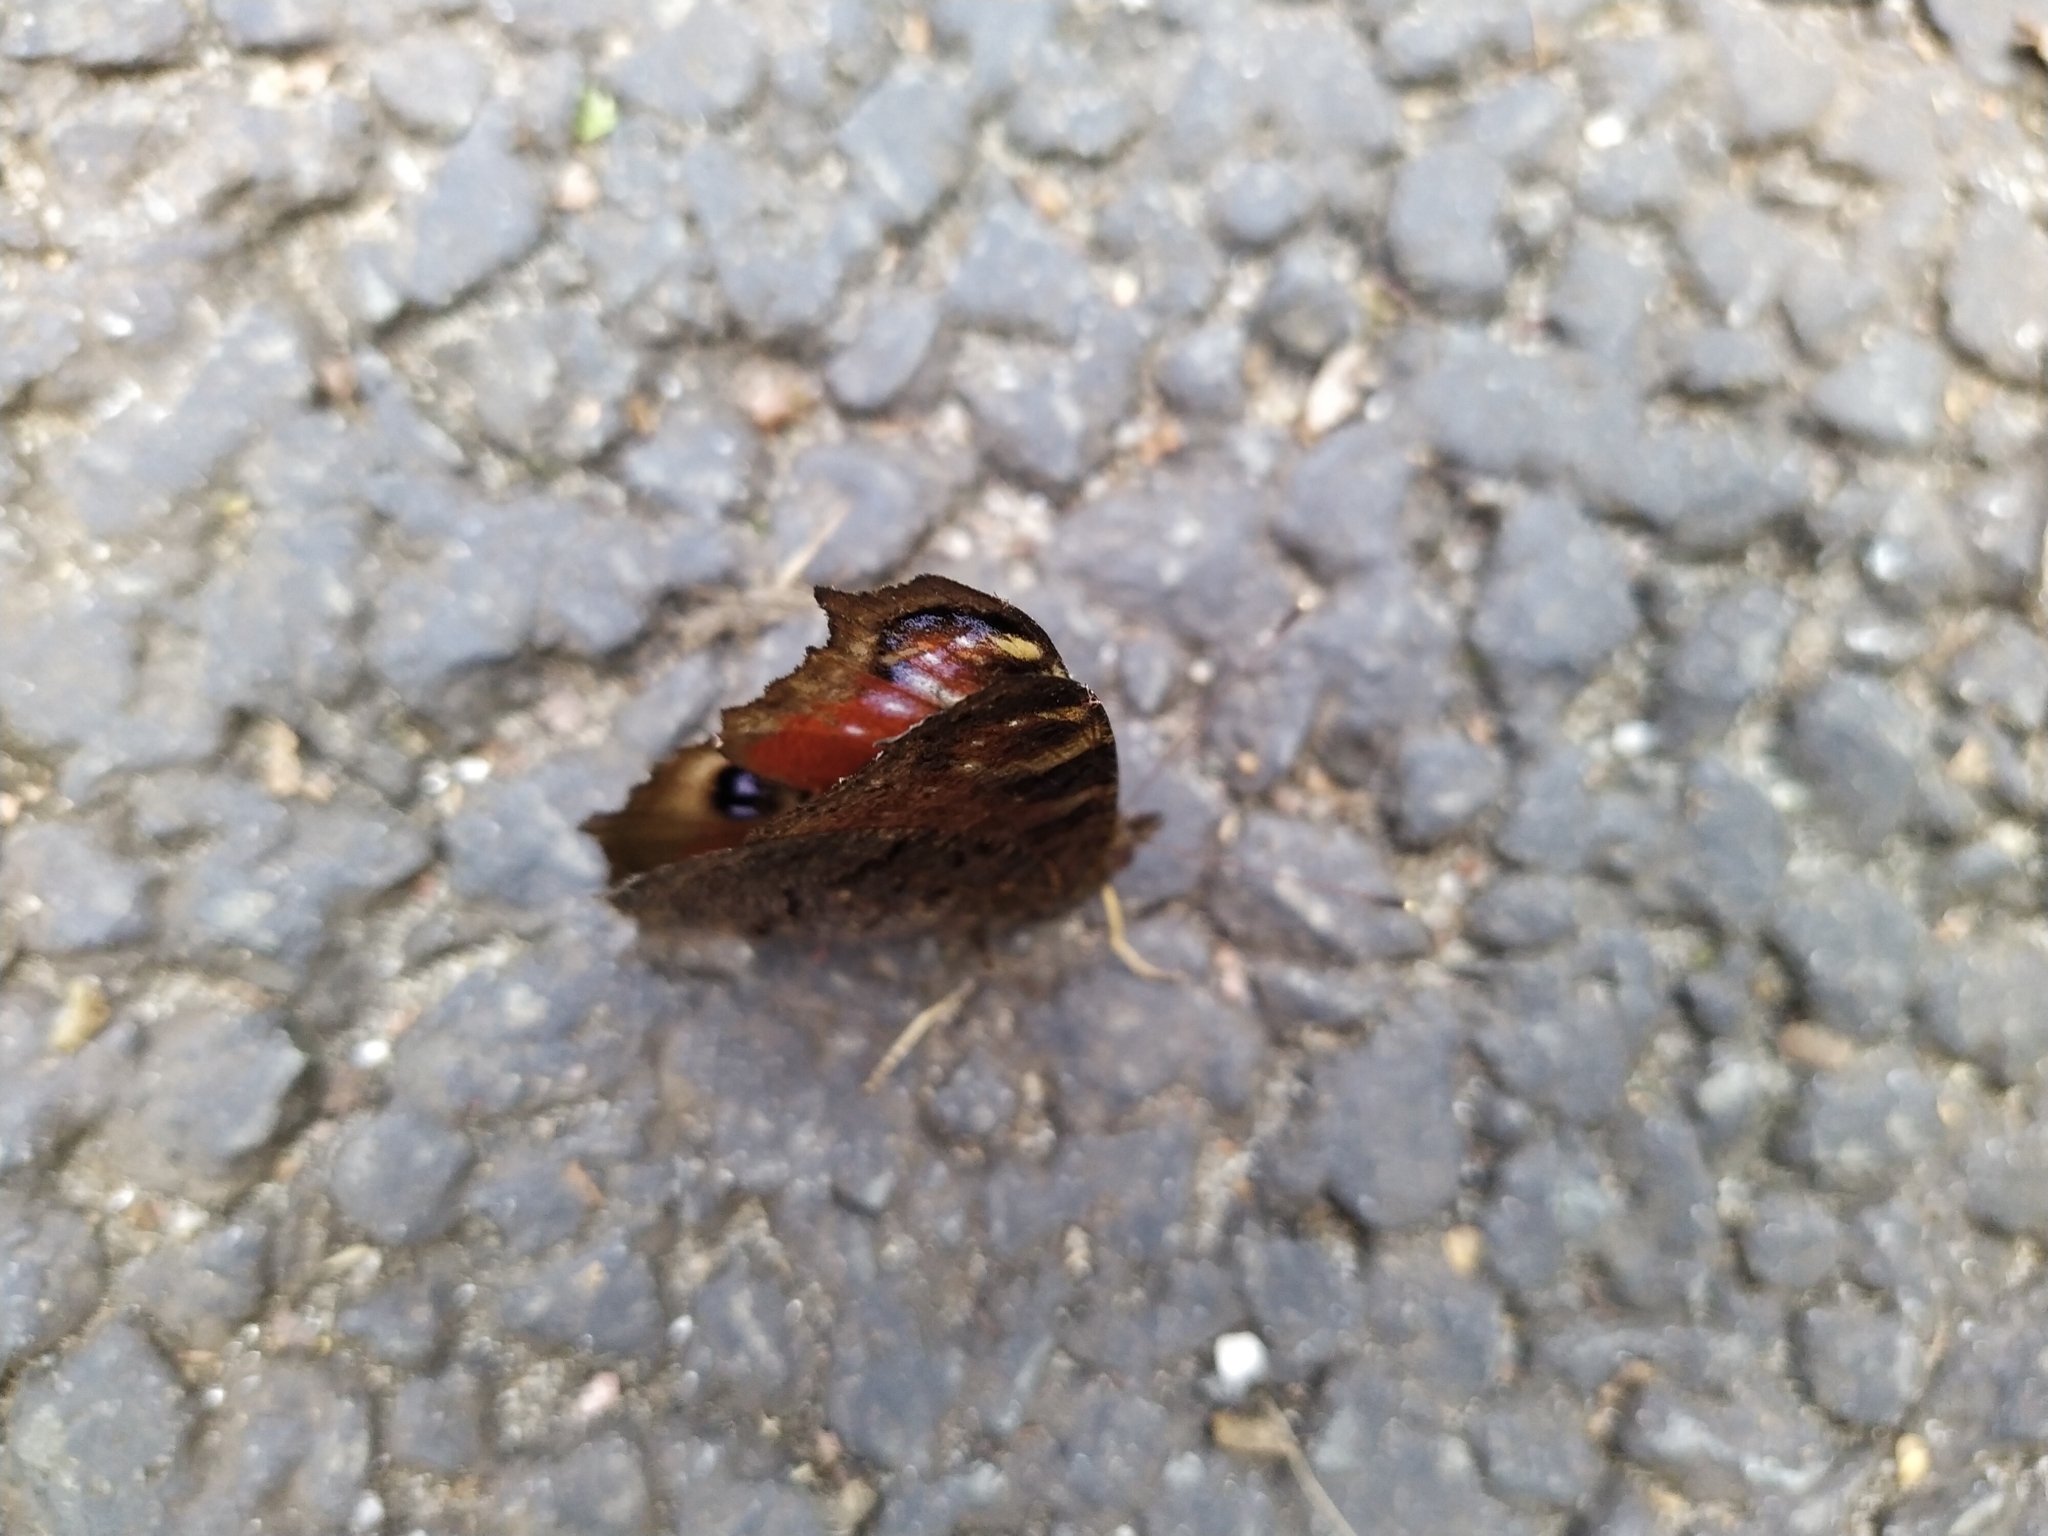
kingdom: Animalia
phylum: Arthropoda
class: Insecta
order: Lepidoptera
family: Nymphalidae
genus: Aglais
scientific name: Aglais io
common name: Peacock
